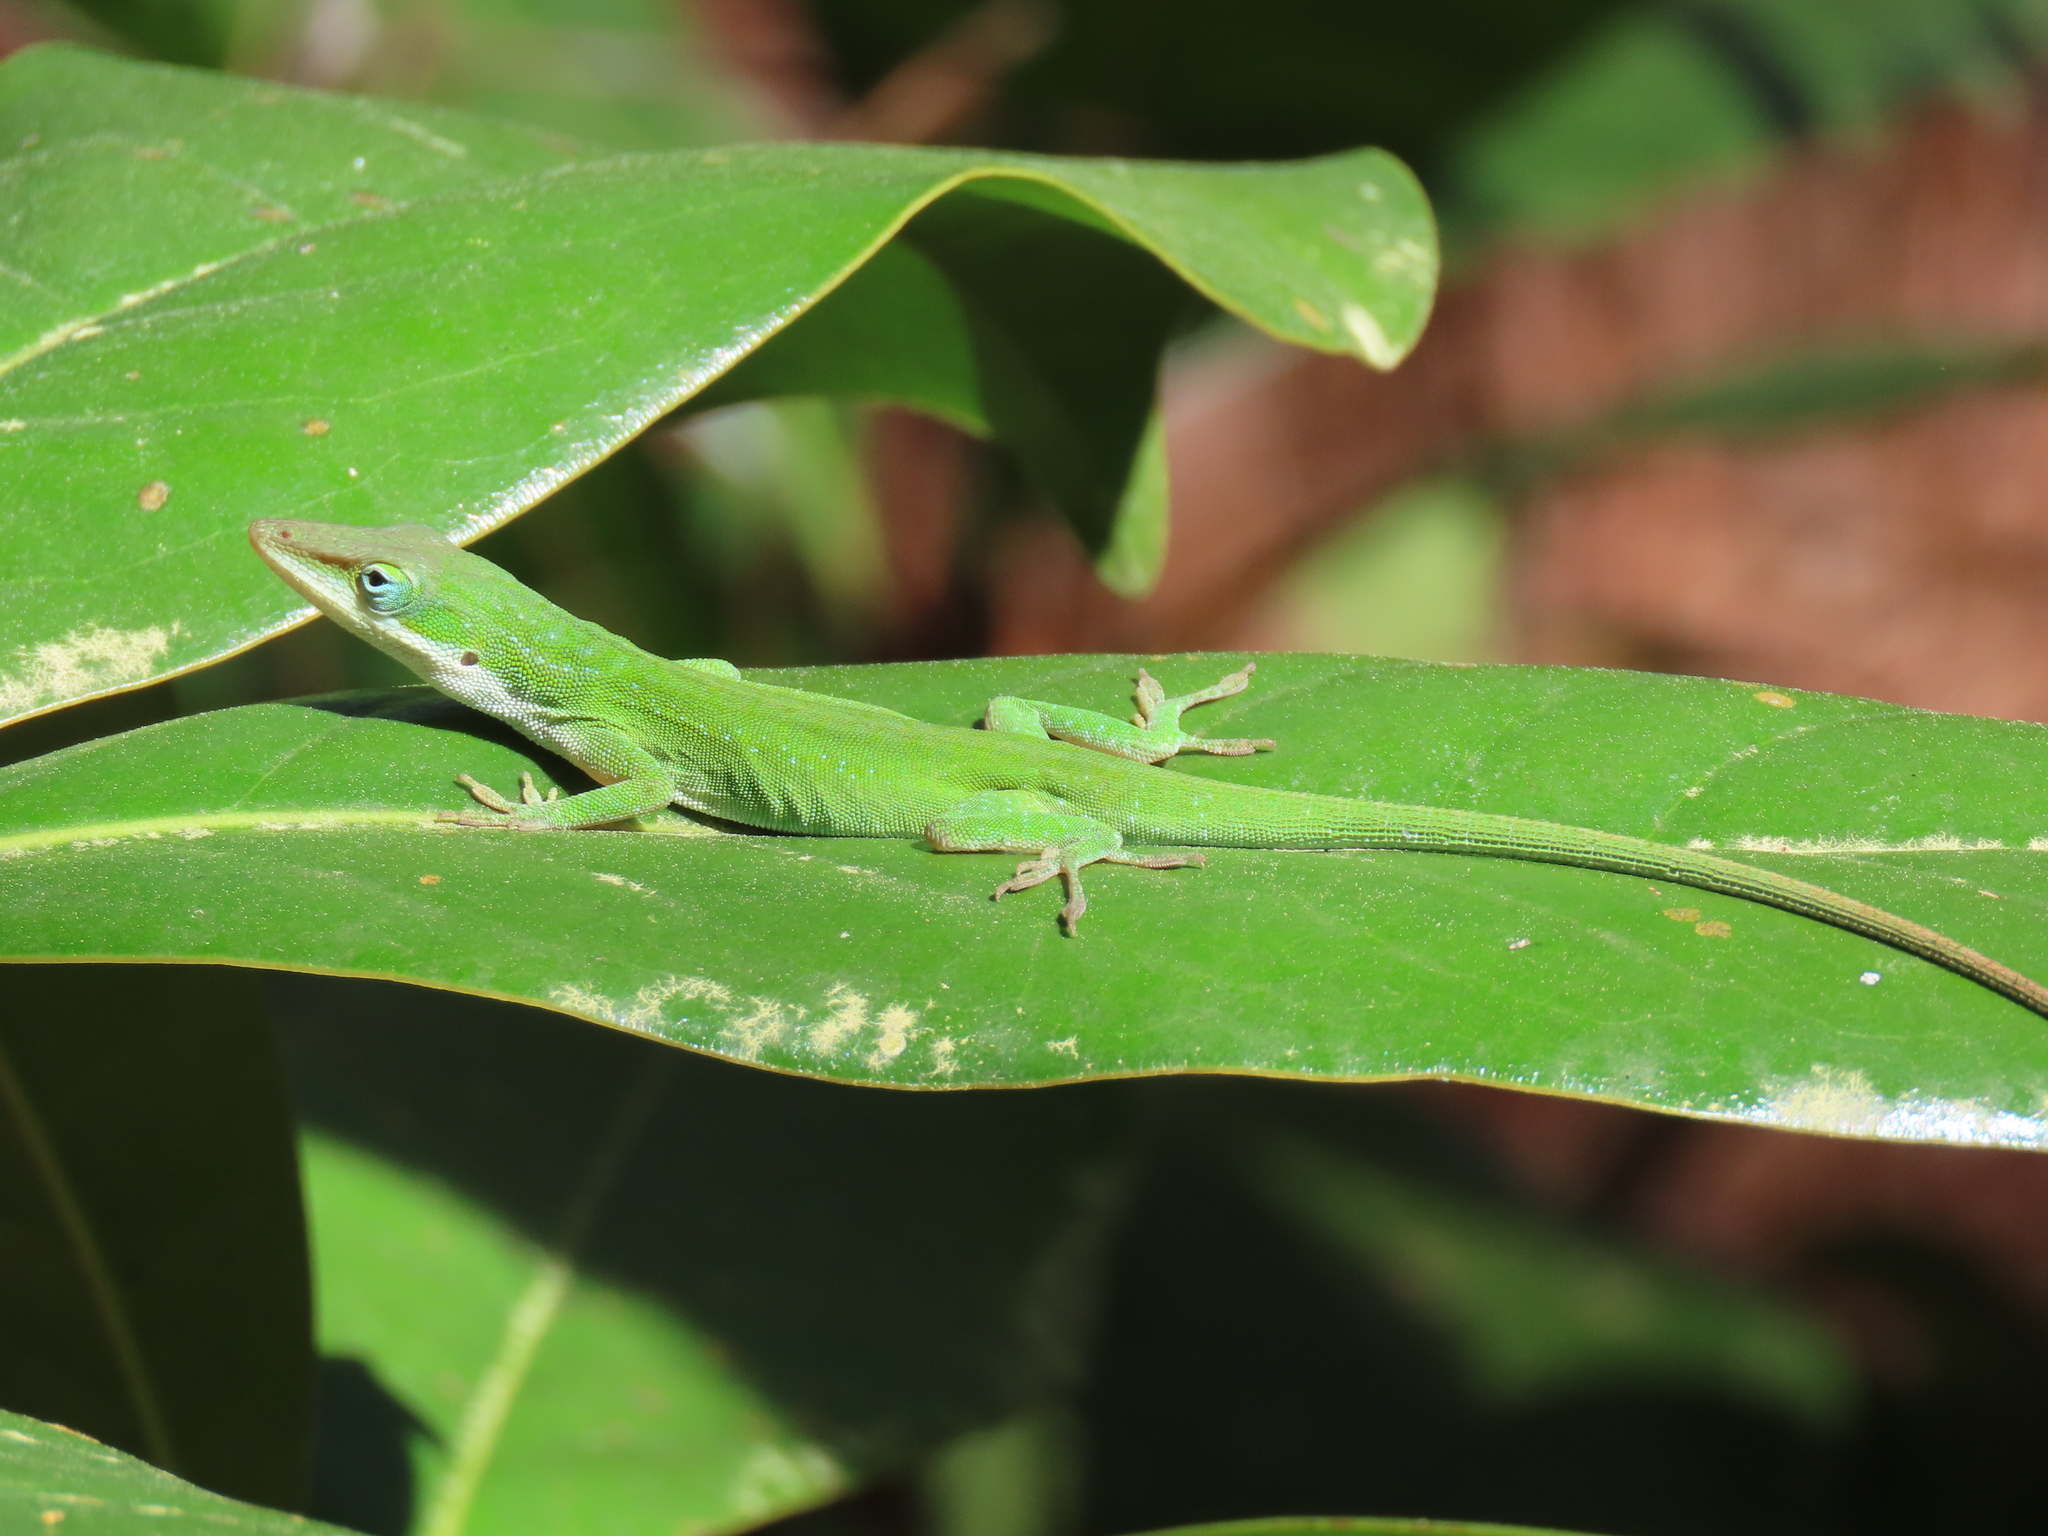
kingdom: Animalia
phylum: Chordata
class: Squamata
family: Dactyloidae
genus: Anolis
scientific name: Anolis carolinensis
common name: Green anole
